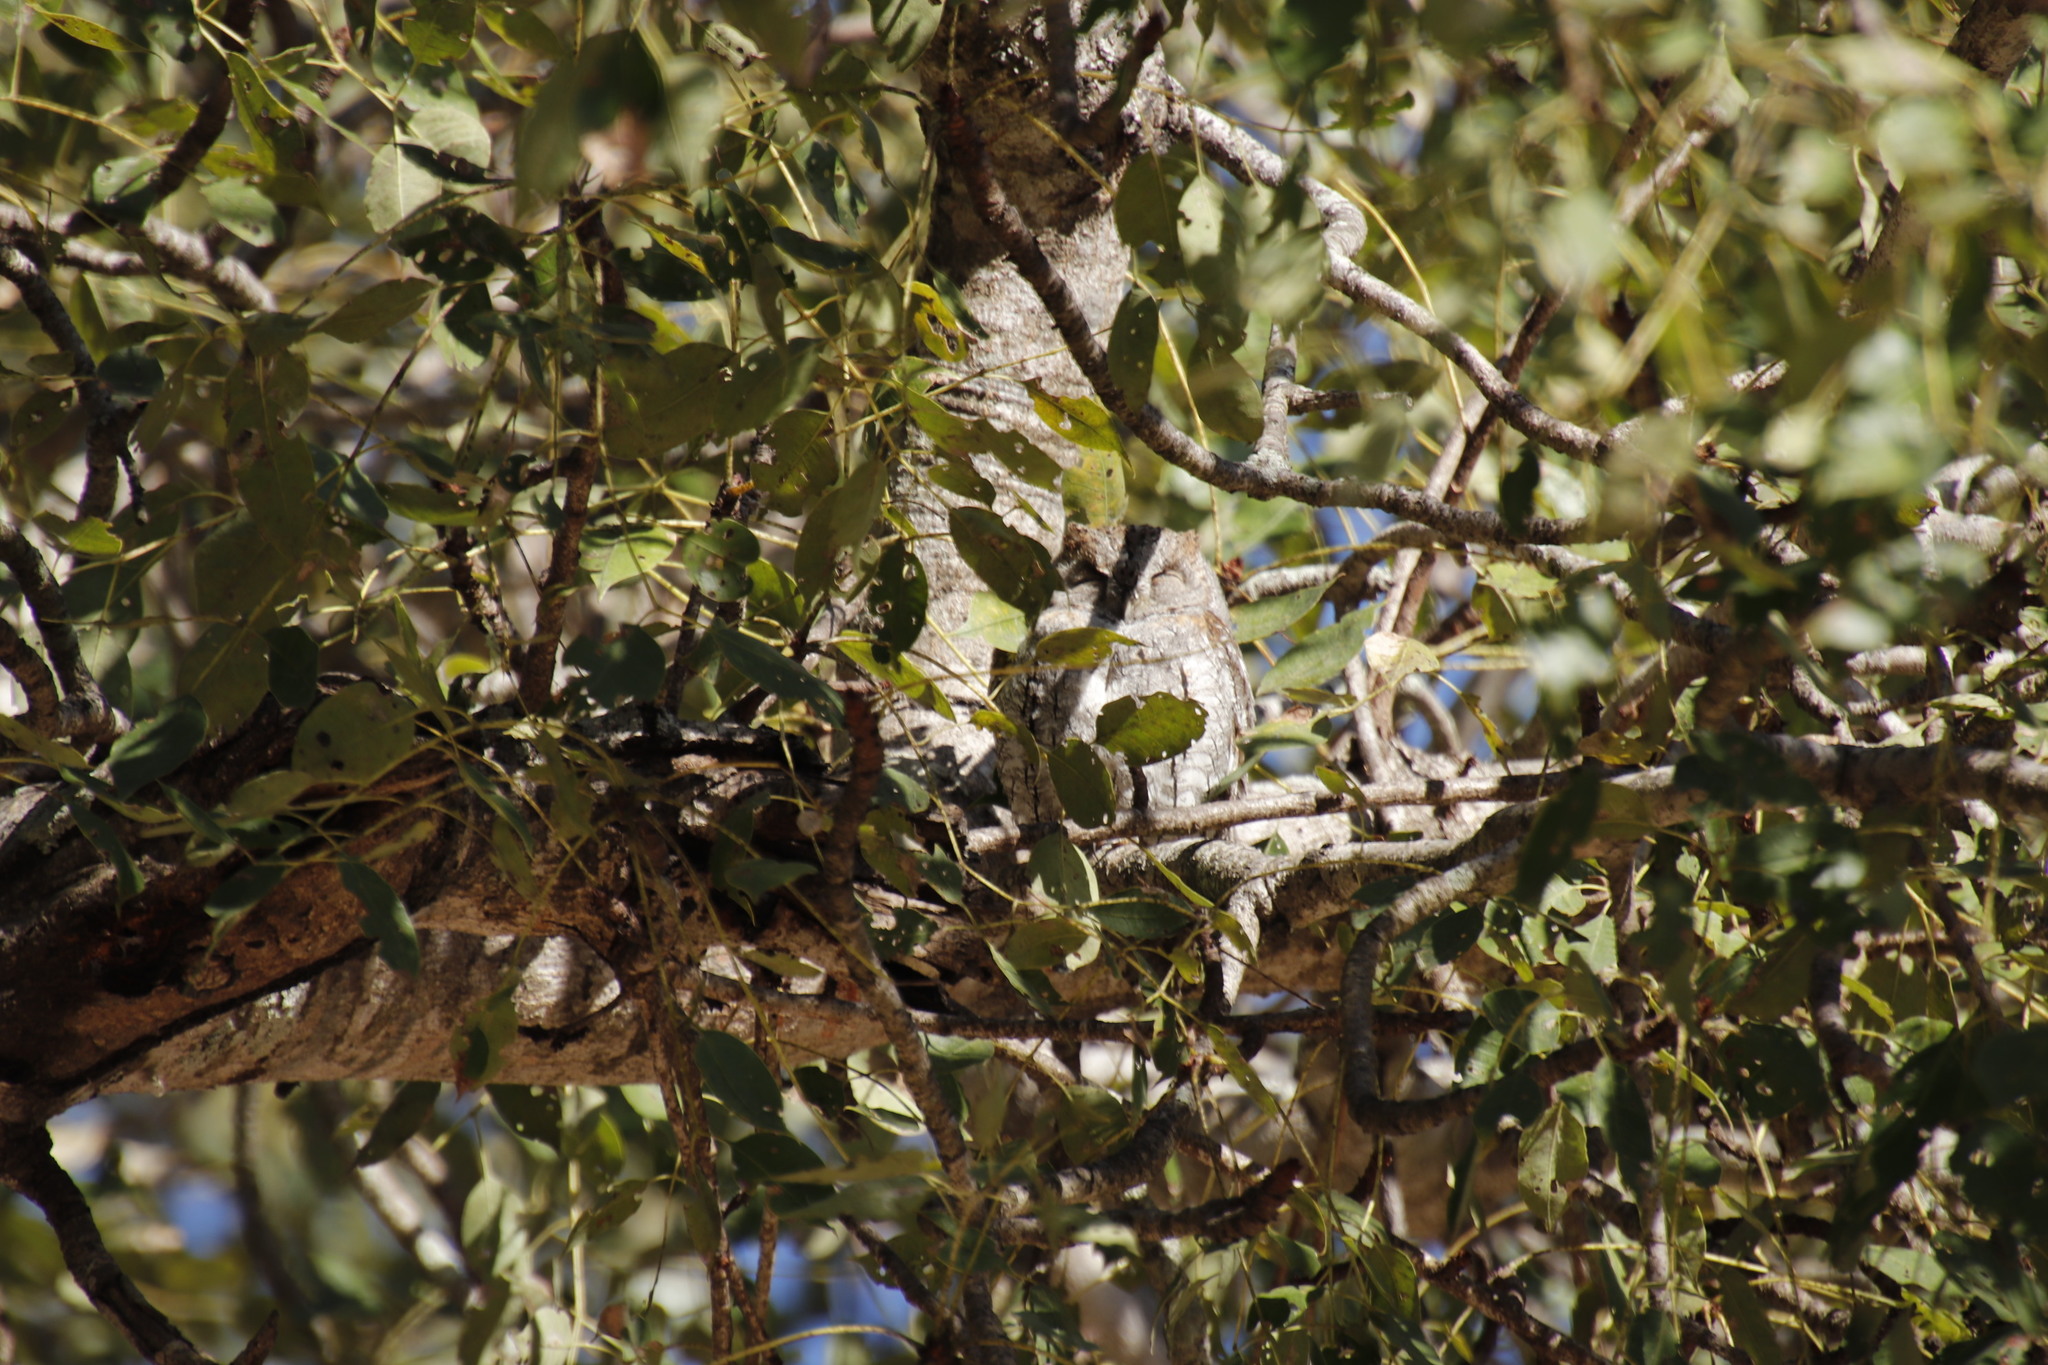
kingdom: Animalia
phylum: Chordata
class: Aves
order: Strigiformes
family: Strigidae
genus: Otus
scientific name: Otus senegalensis
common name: African scops owl
